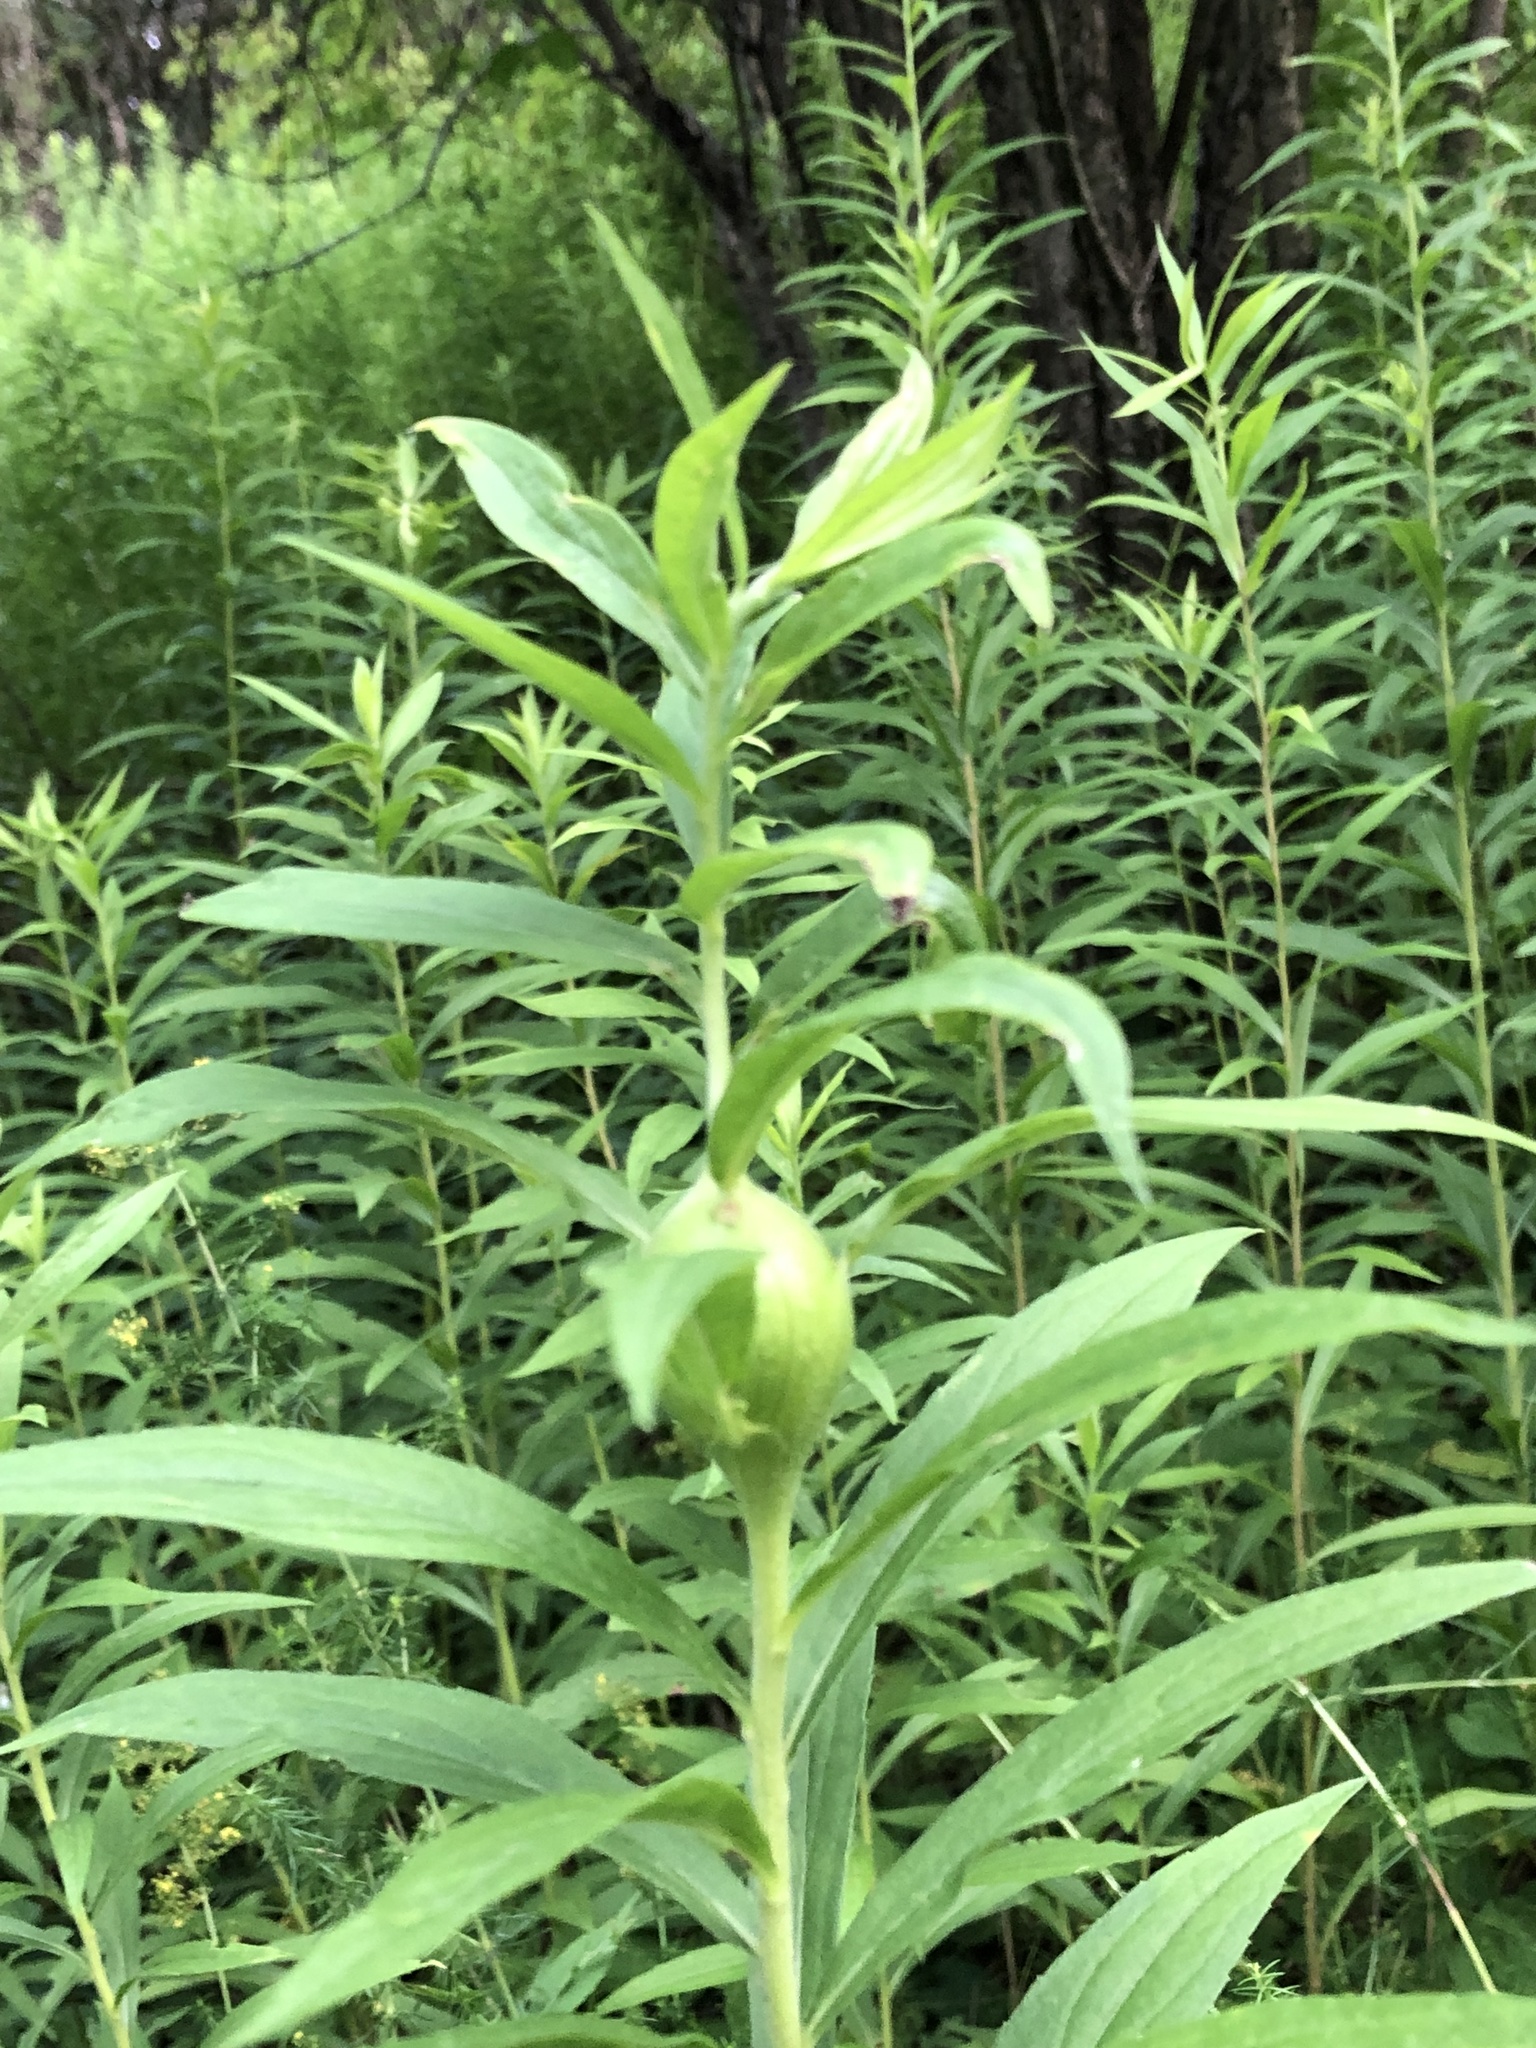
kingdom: Animalia
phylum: Arthropoda
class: Insecta
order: Diptera
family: Tephritidae
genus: Eurosta
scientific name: Eurosta solidaginis
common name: Goldenrod gall fly
